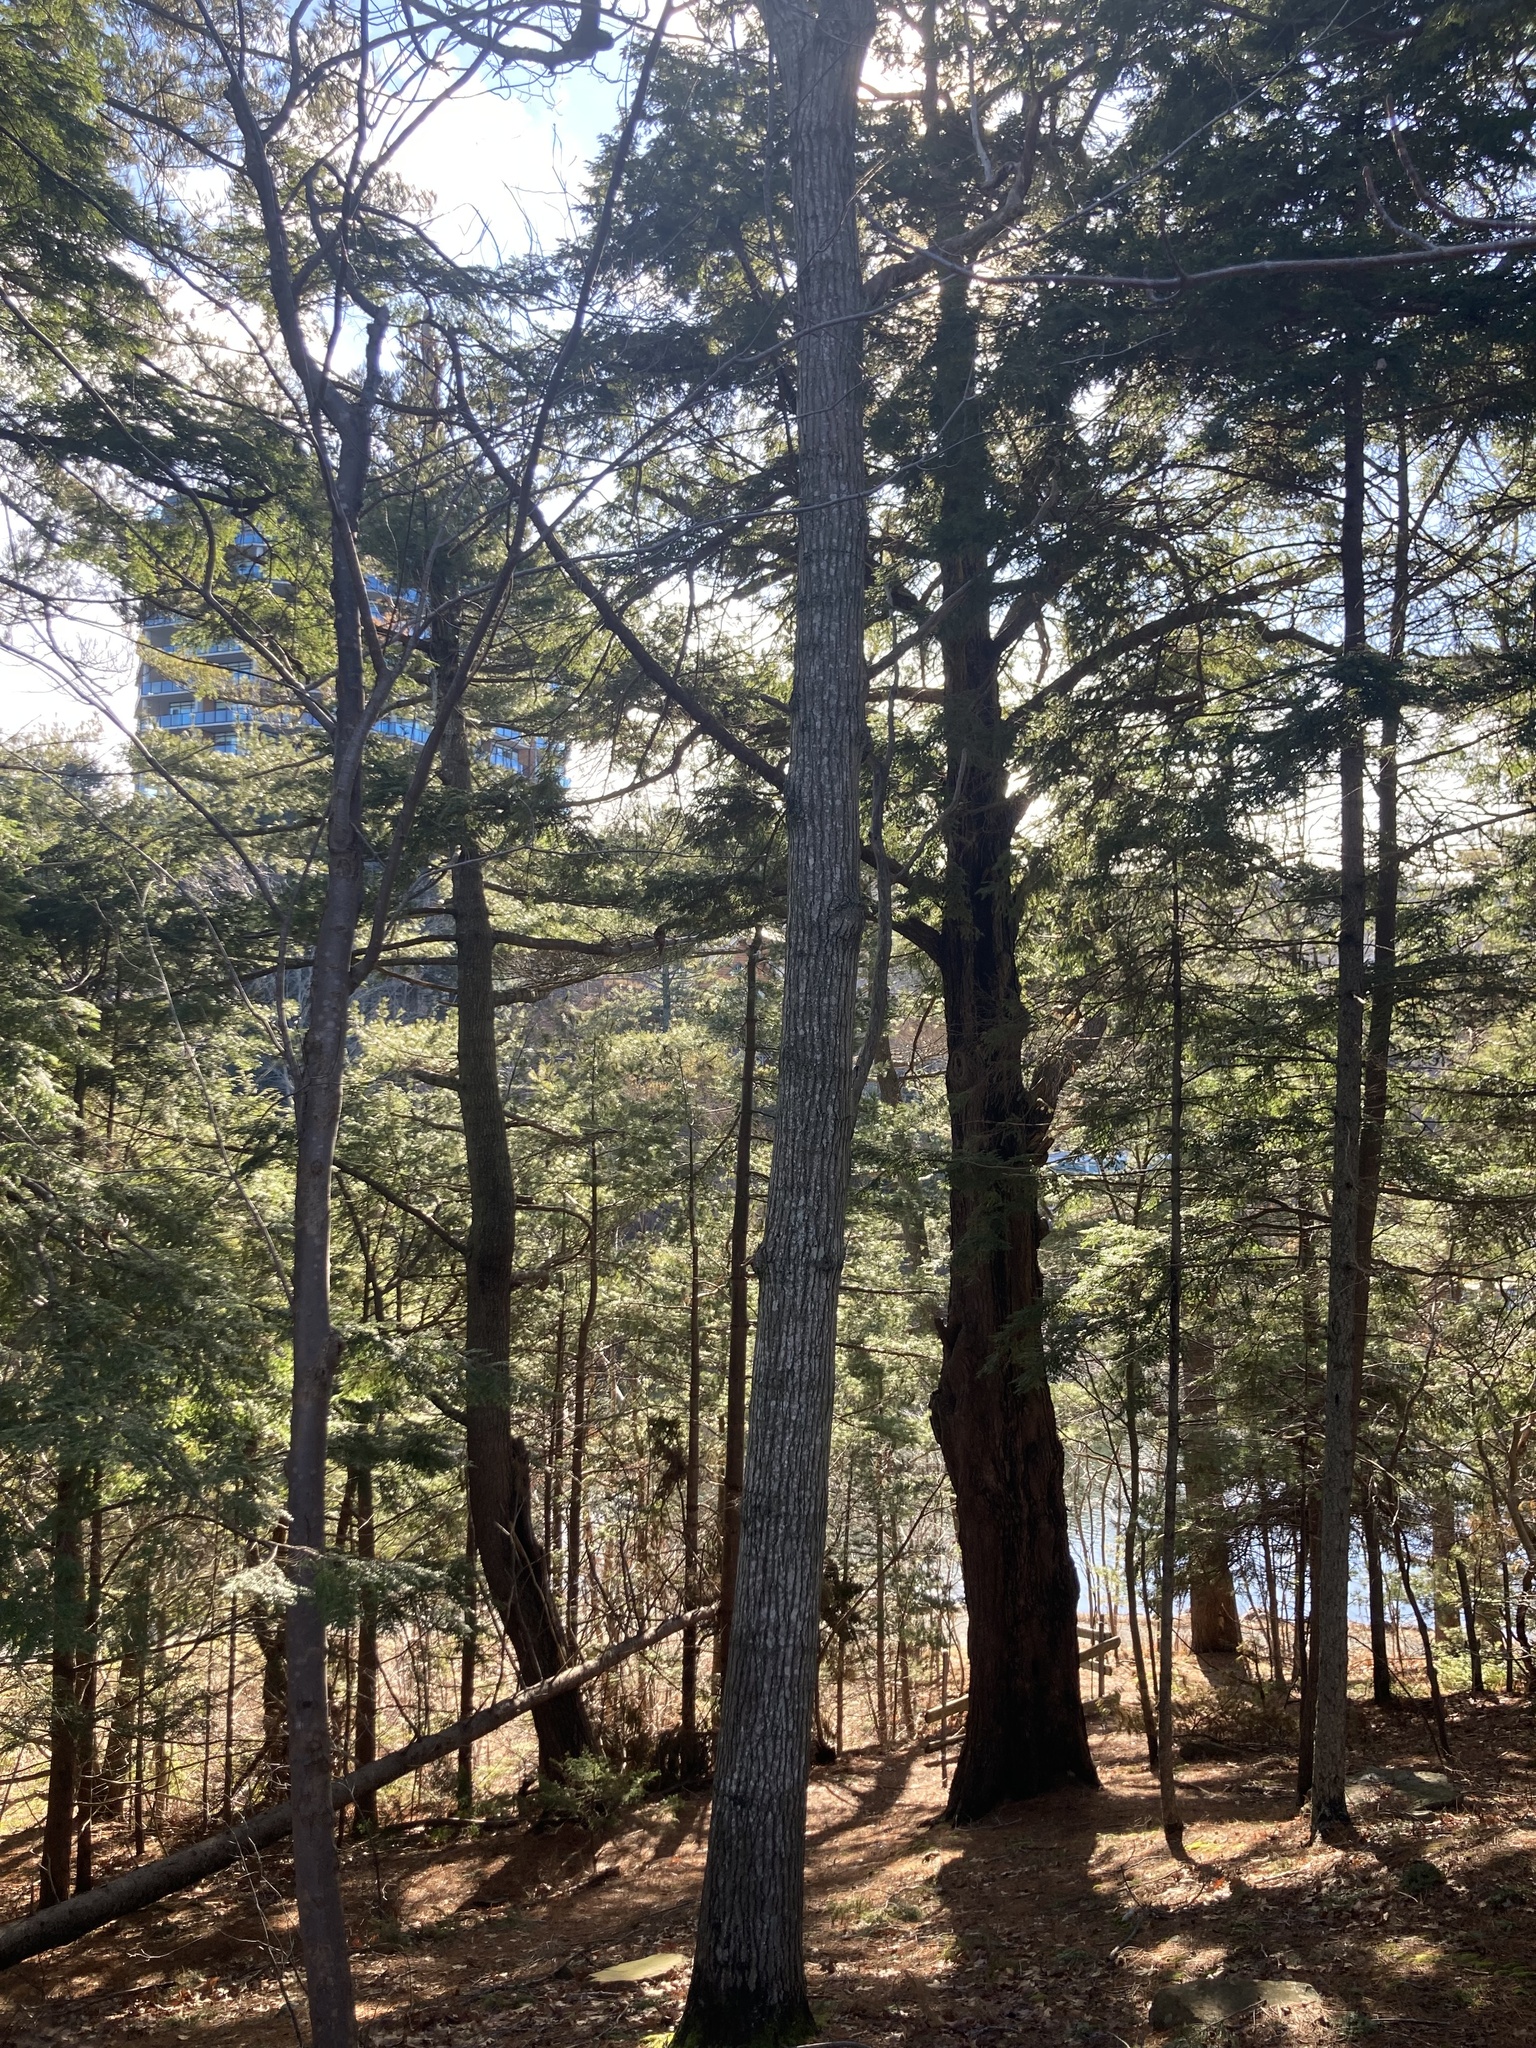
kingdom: Plantae
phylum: Tracheophyta
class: Pinopsida
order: Pinales
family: Pinaceae
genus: Tsuga
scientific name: Tsuga canadensis
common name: Eastern hemlock
